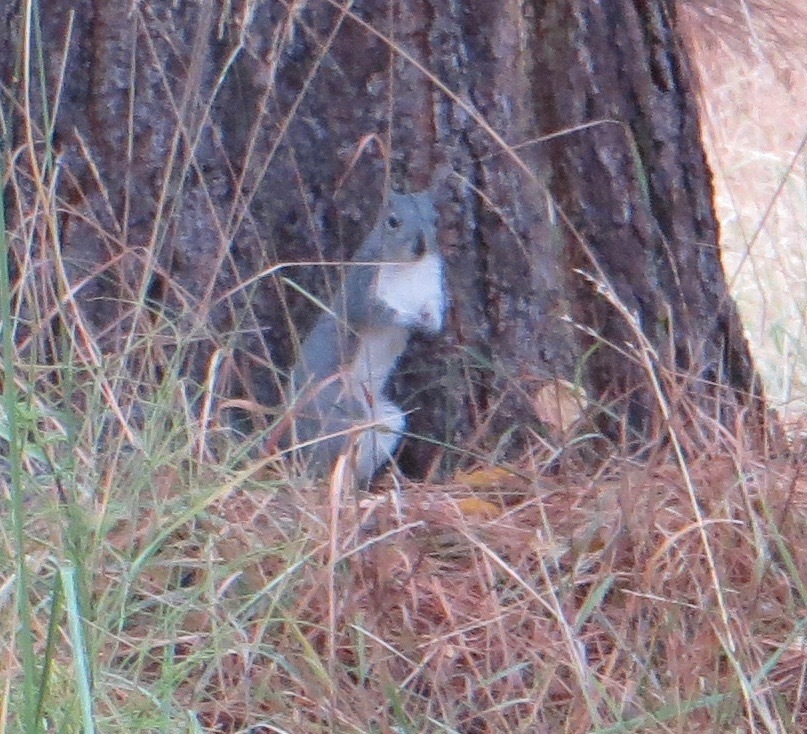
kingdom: Animalia
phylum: Chordata
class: Mammalia
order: Rodentia
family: Sciuridae
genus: Sciurus
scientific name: Sciurus griseus
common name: Western gray squirrel
